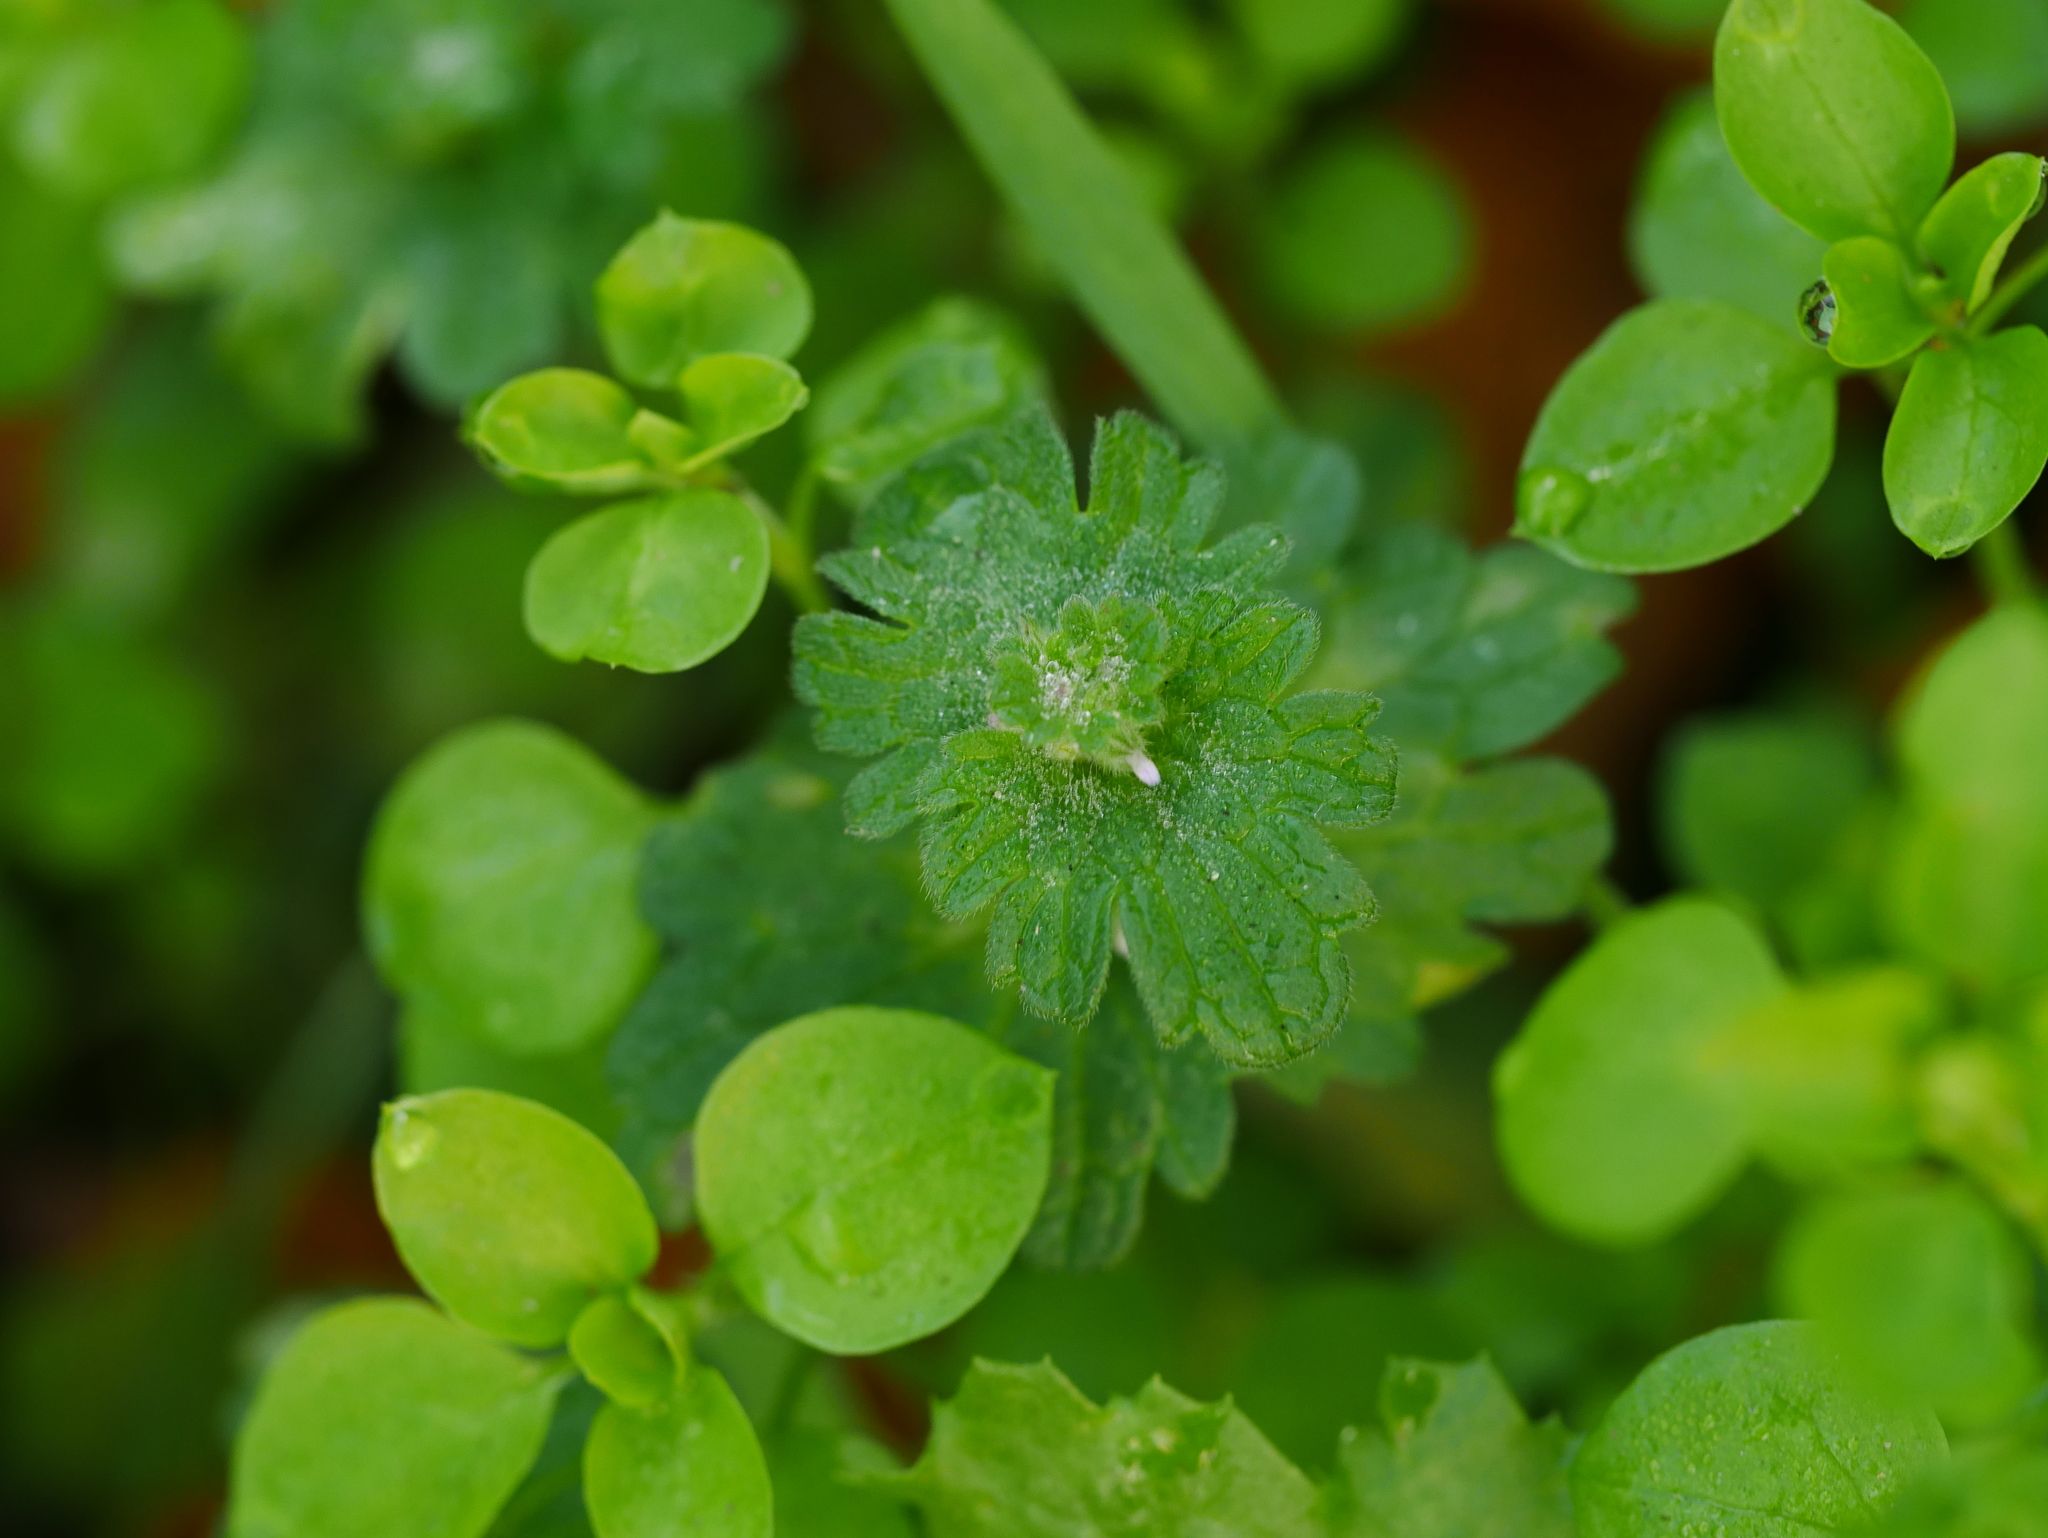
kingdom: Plantae
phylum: Tracheophyta
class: Magnoliopsida
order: Lamiales
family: Lamiaceae
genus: Lamium
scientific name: Lamium amplexicaule
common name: Henbit dead-nettle
